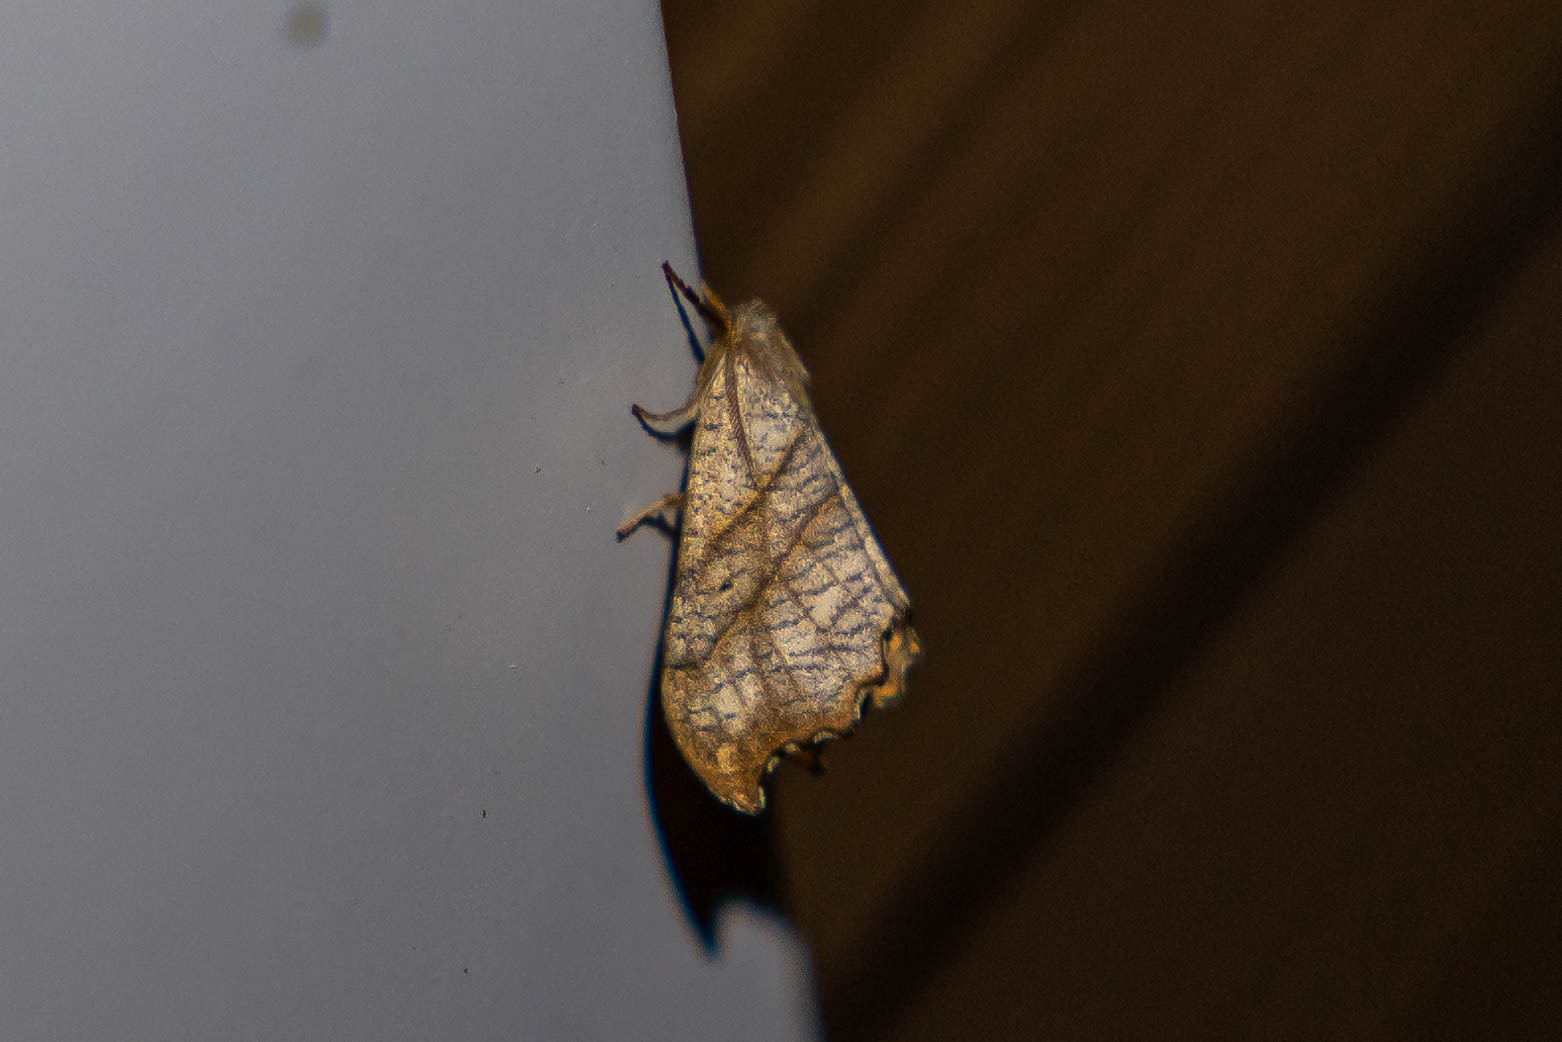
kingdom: Animalia
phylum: Arthropoda
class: Insecta
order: Lepidoptera
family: Drepanidae
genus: Falcaria
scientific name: Falcaria bilineata
